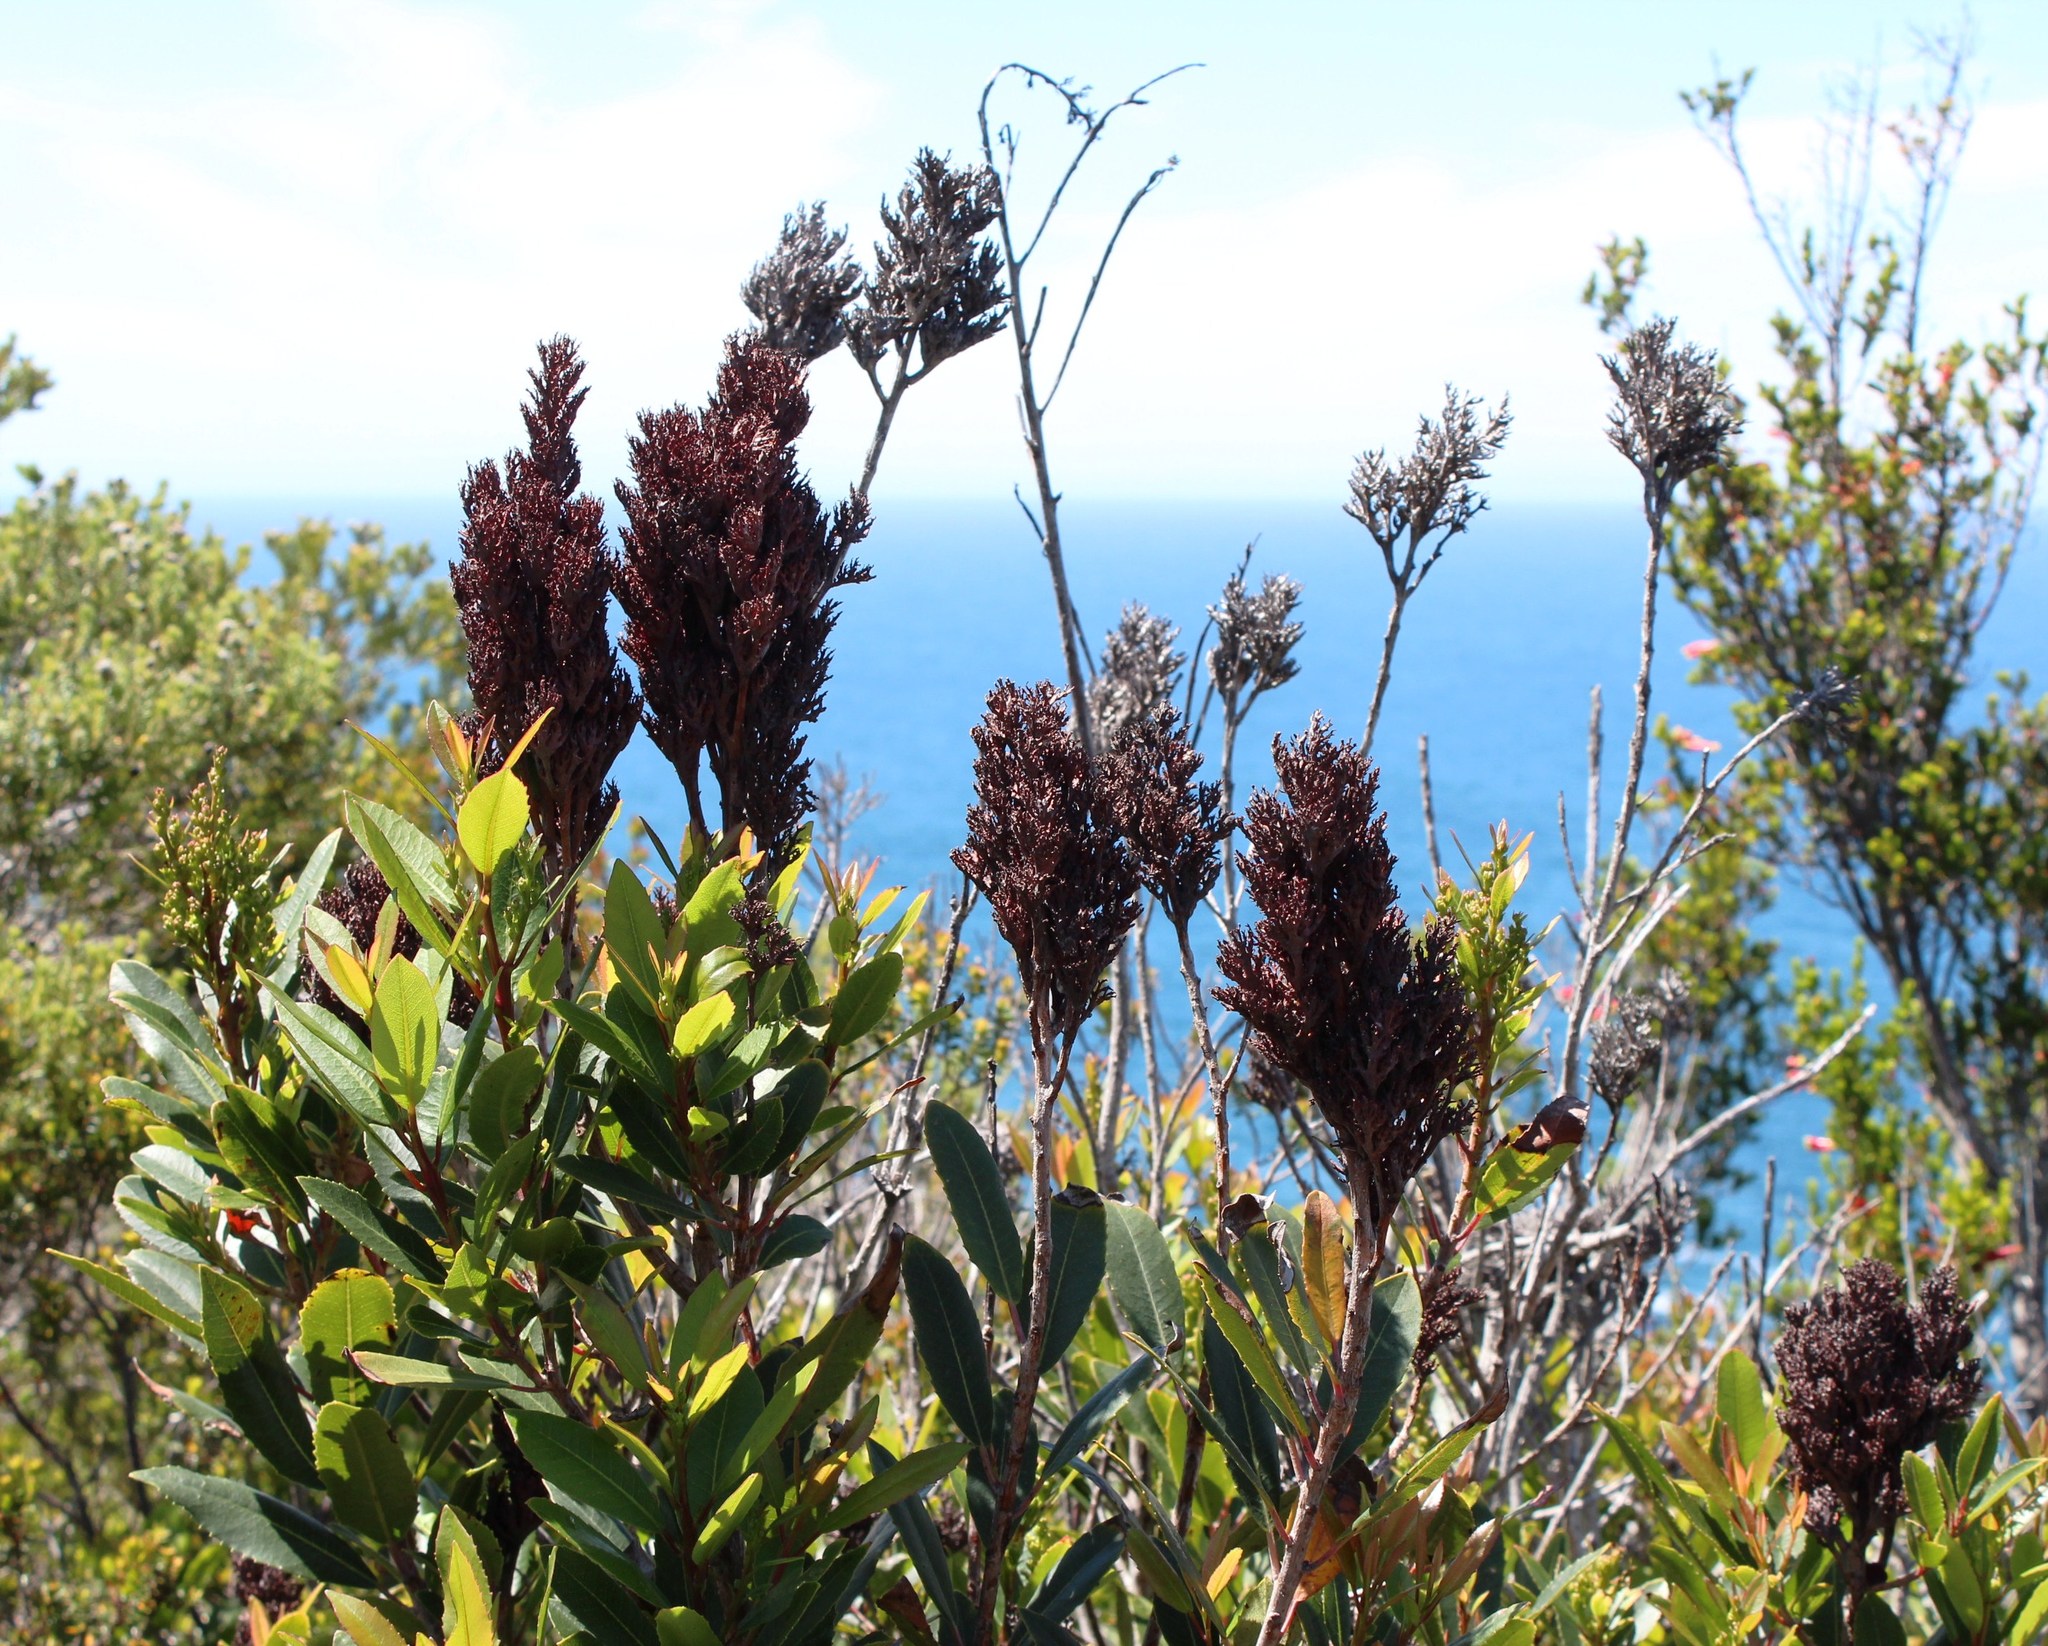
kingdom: Plantae
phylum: Tracheophyta
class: Magnoliopsida
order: Sapindales
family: Anacardiaceae
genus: Laurophyllus
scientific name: Laurophyllus capensis
